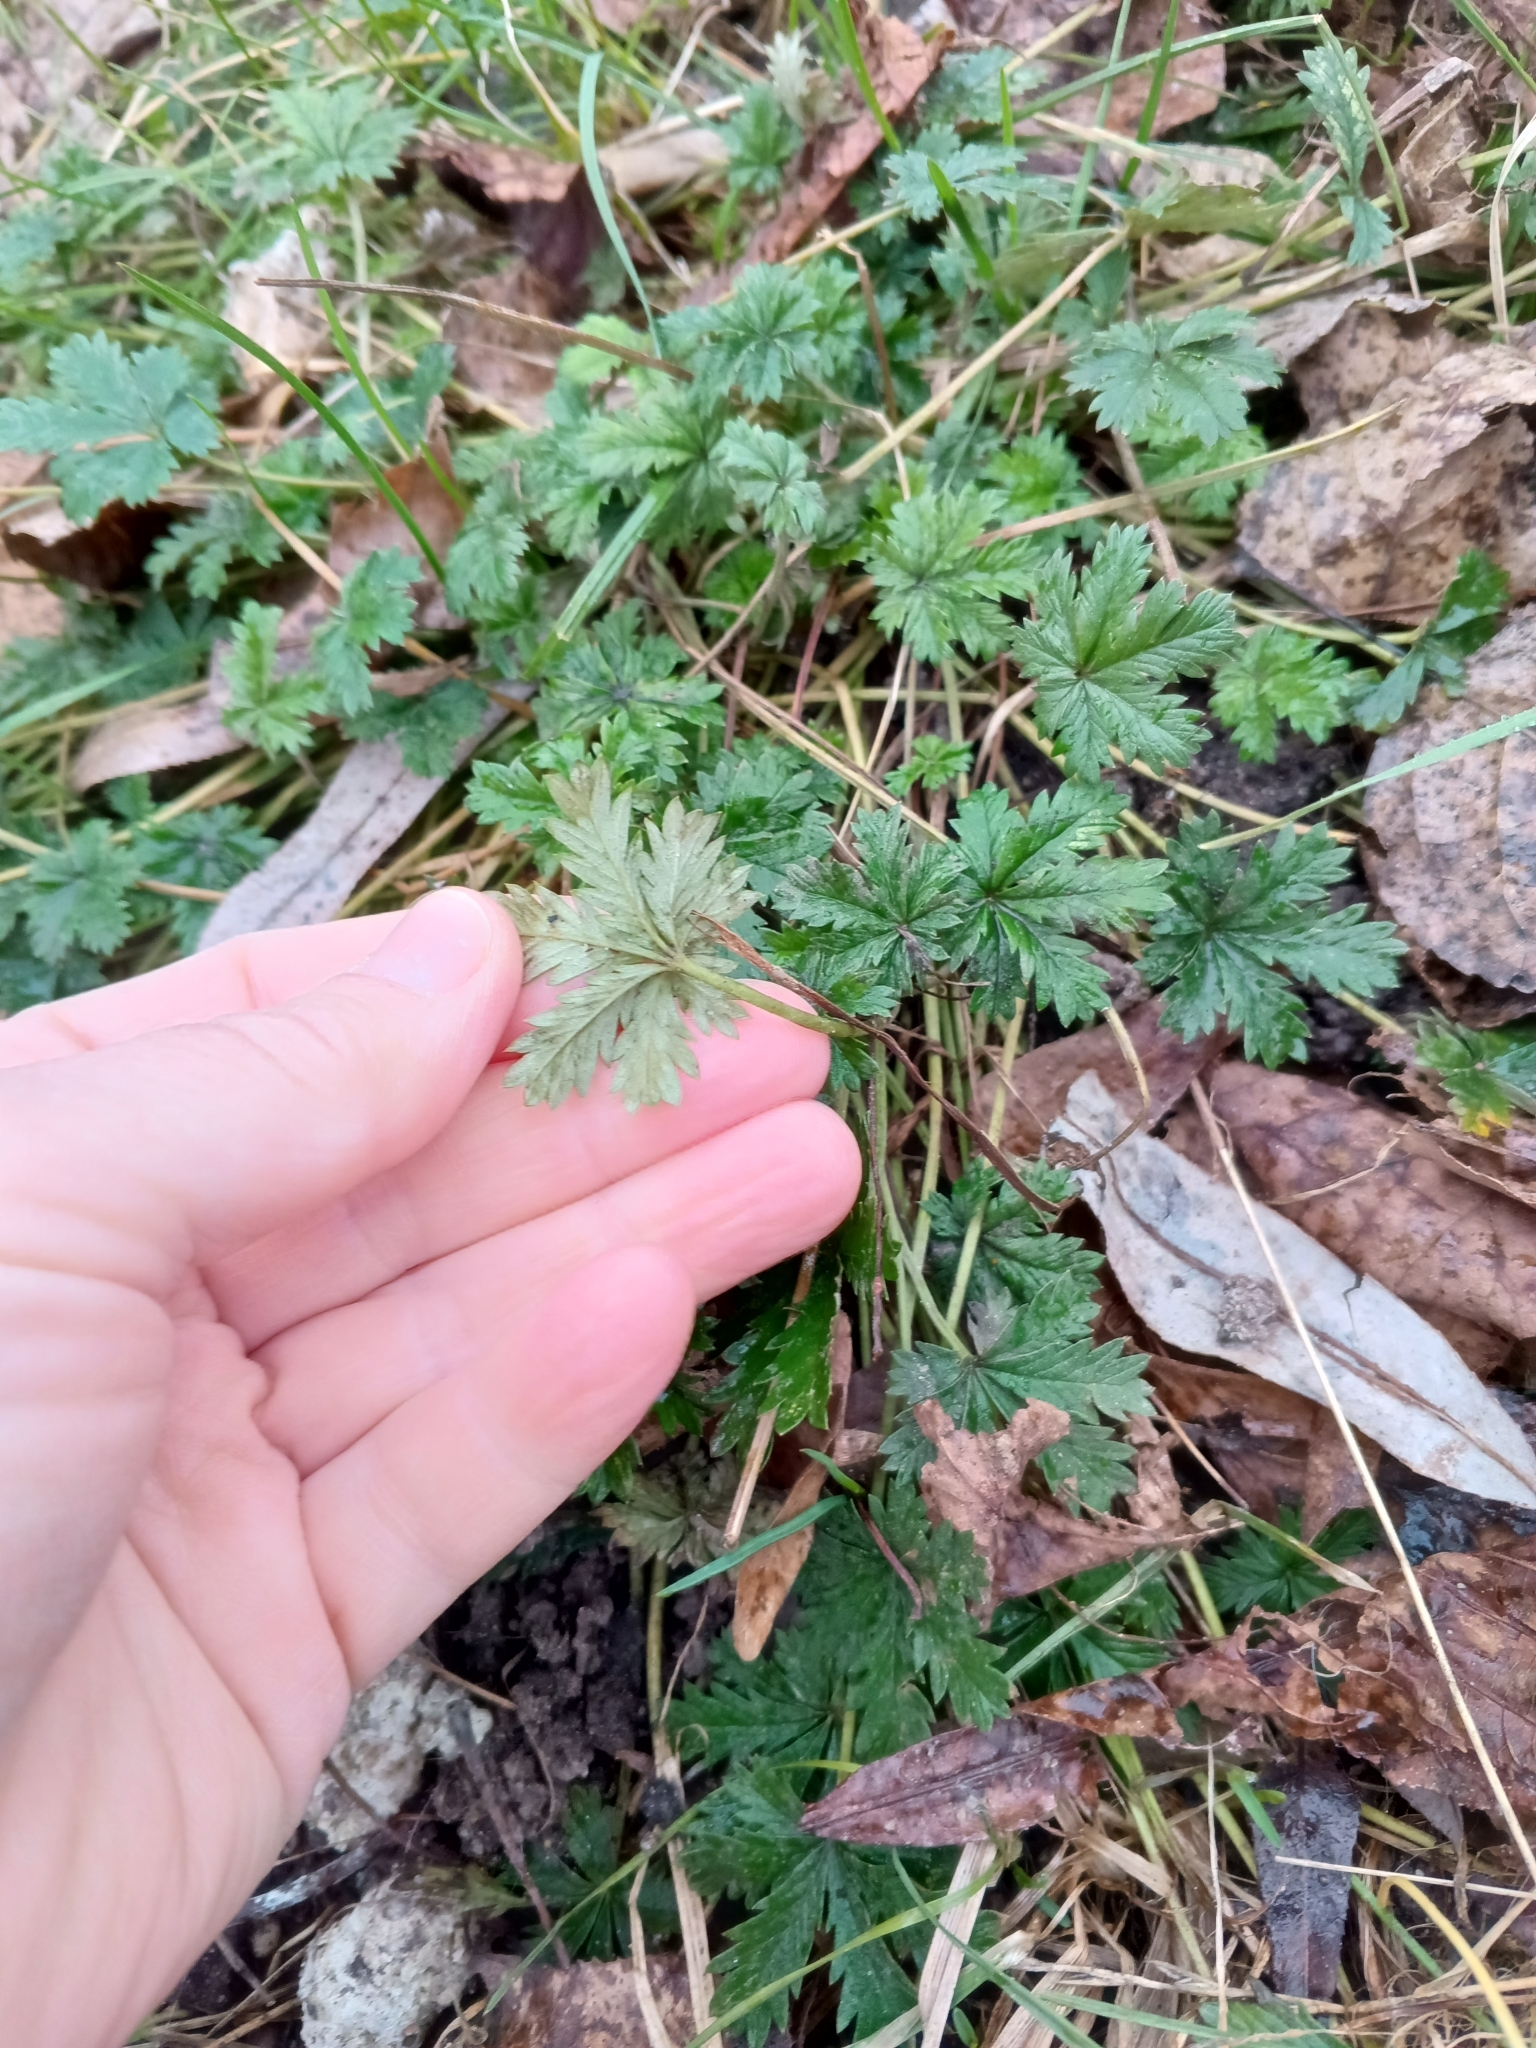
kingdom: Plantae
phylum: Tracheophyta
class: Magnoliopsida
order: Rosales
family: Rosaceae
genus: Potentilla
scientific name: Potentilla argentea
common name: Hoary cinquefoil
